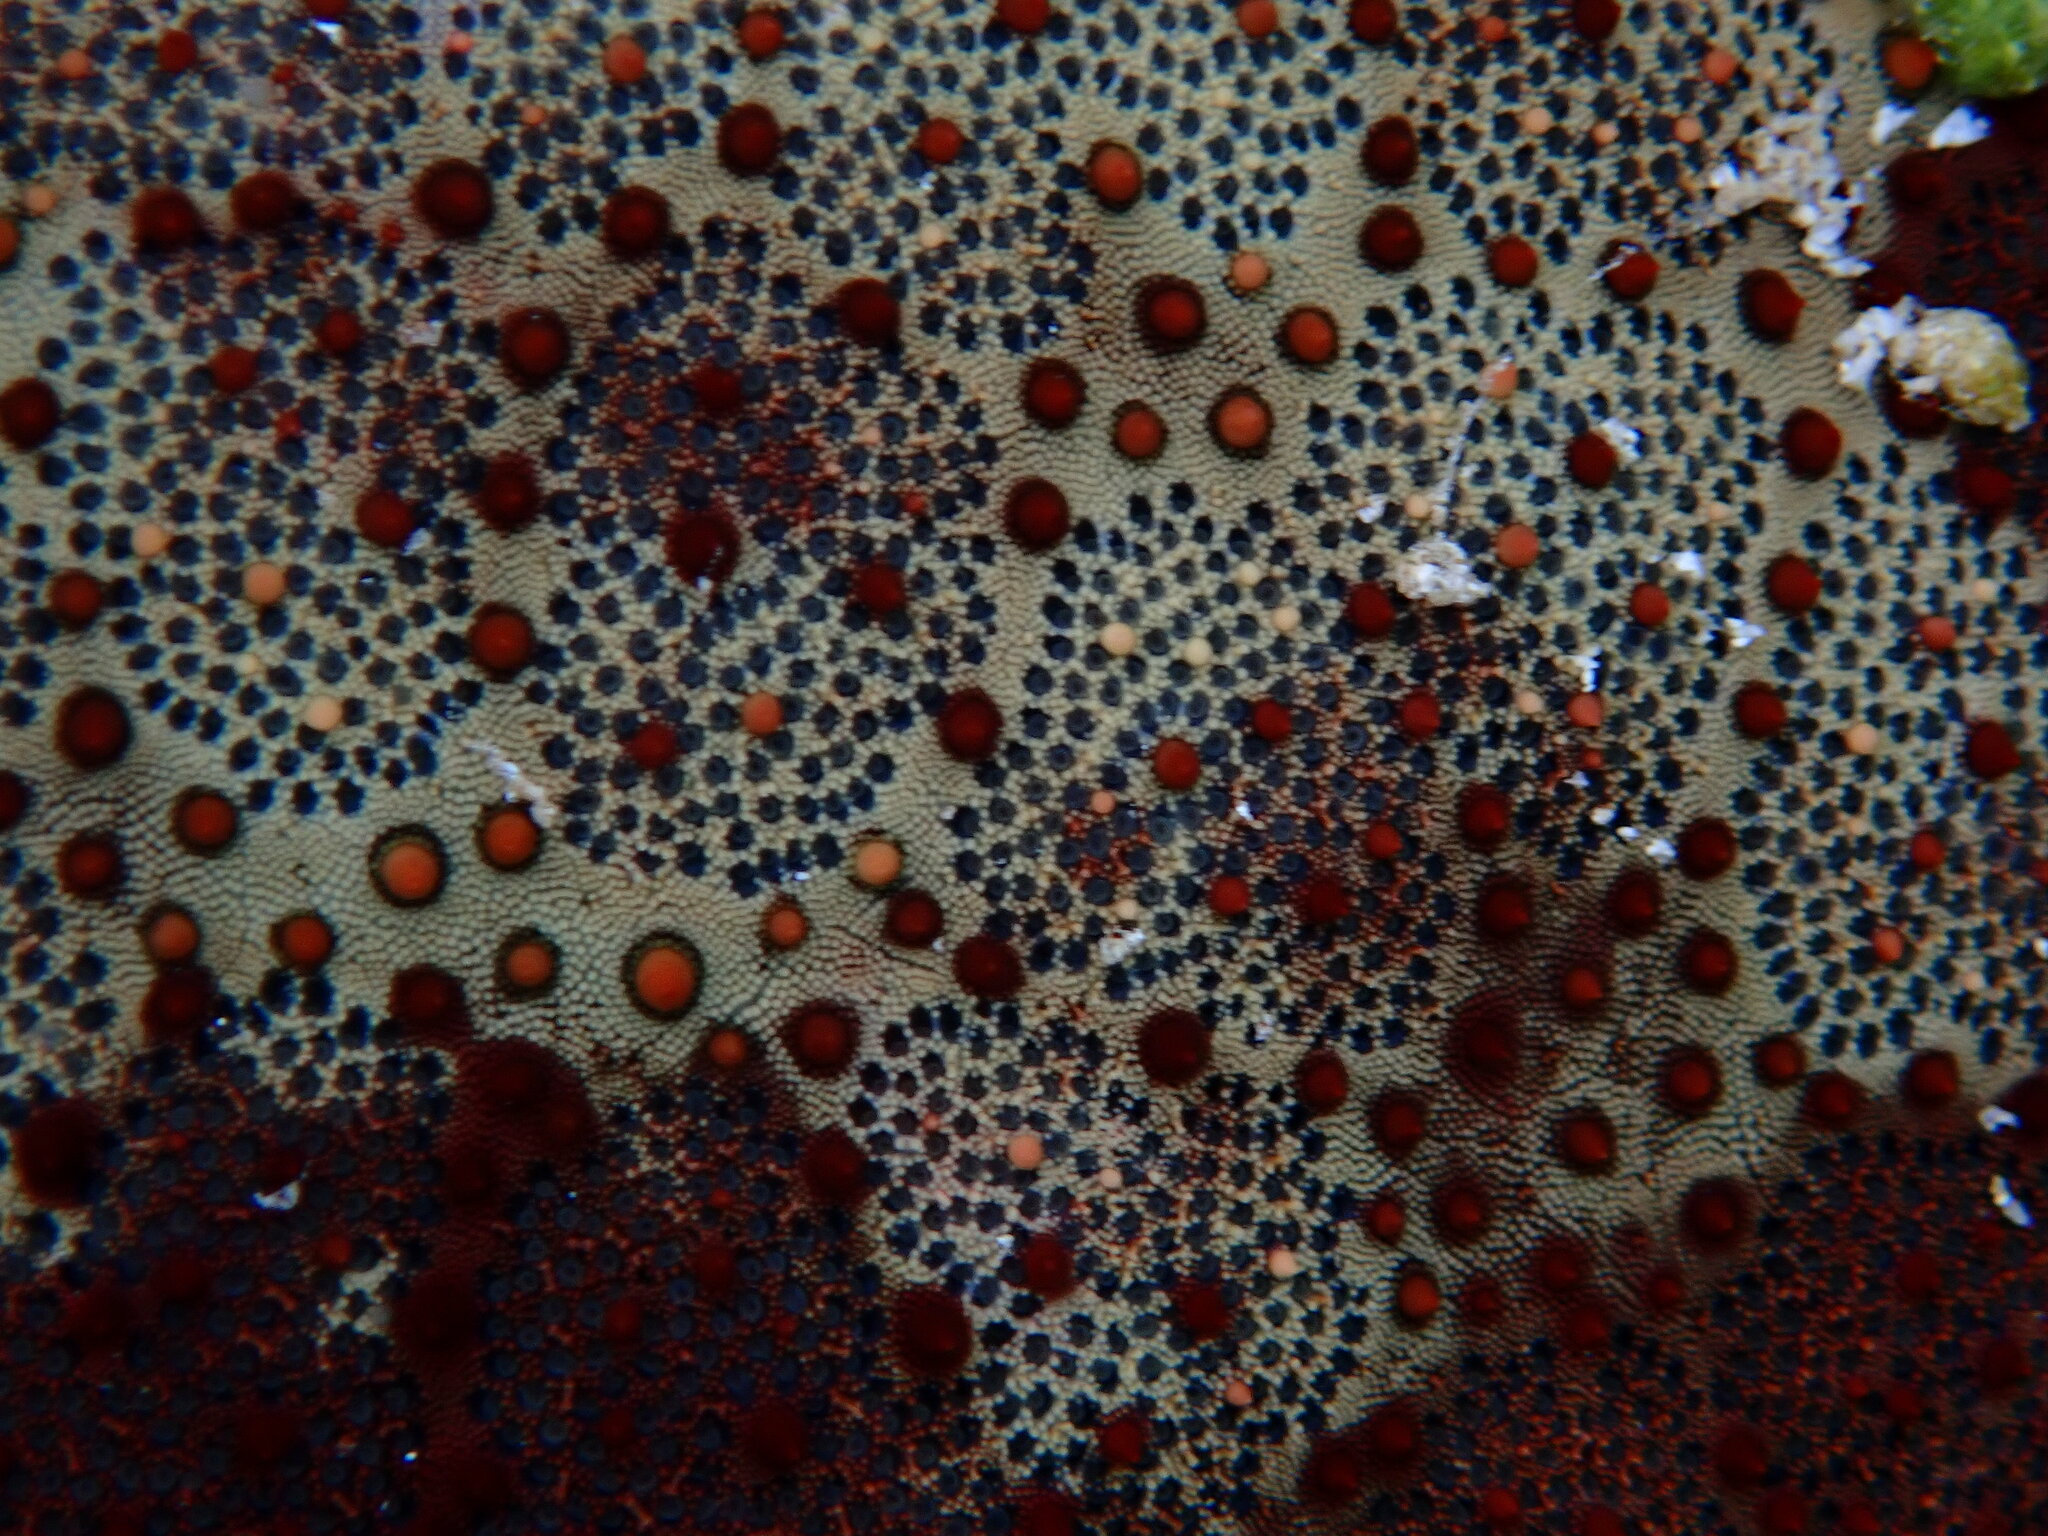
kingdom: Animalia
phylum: Echinodermata
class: Asteroidea
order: Valvatida
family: Oreasteridae
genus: Culcita
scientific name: Culcita novaeguineae
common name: Cushion star
